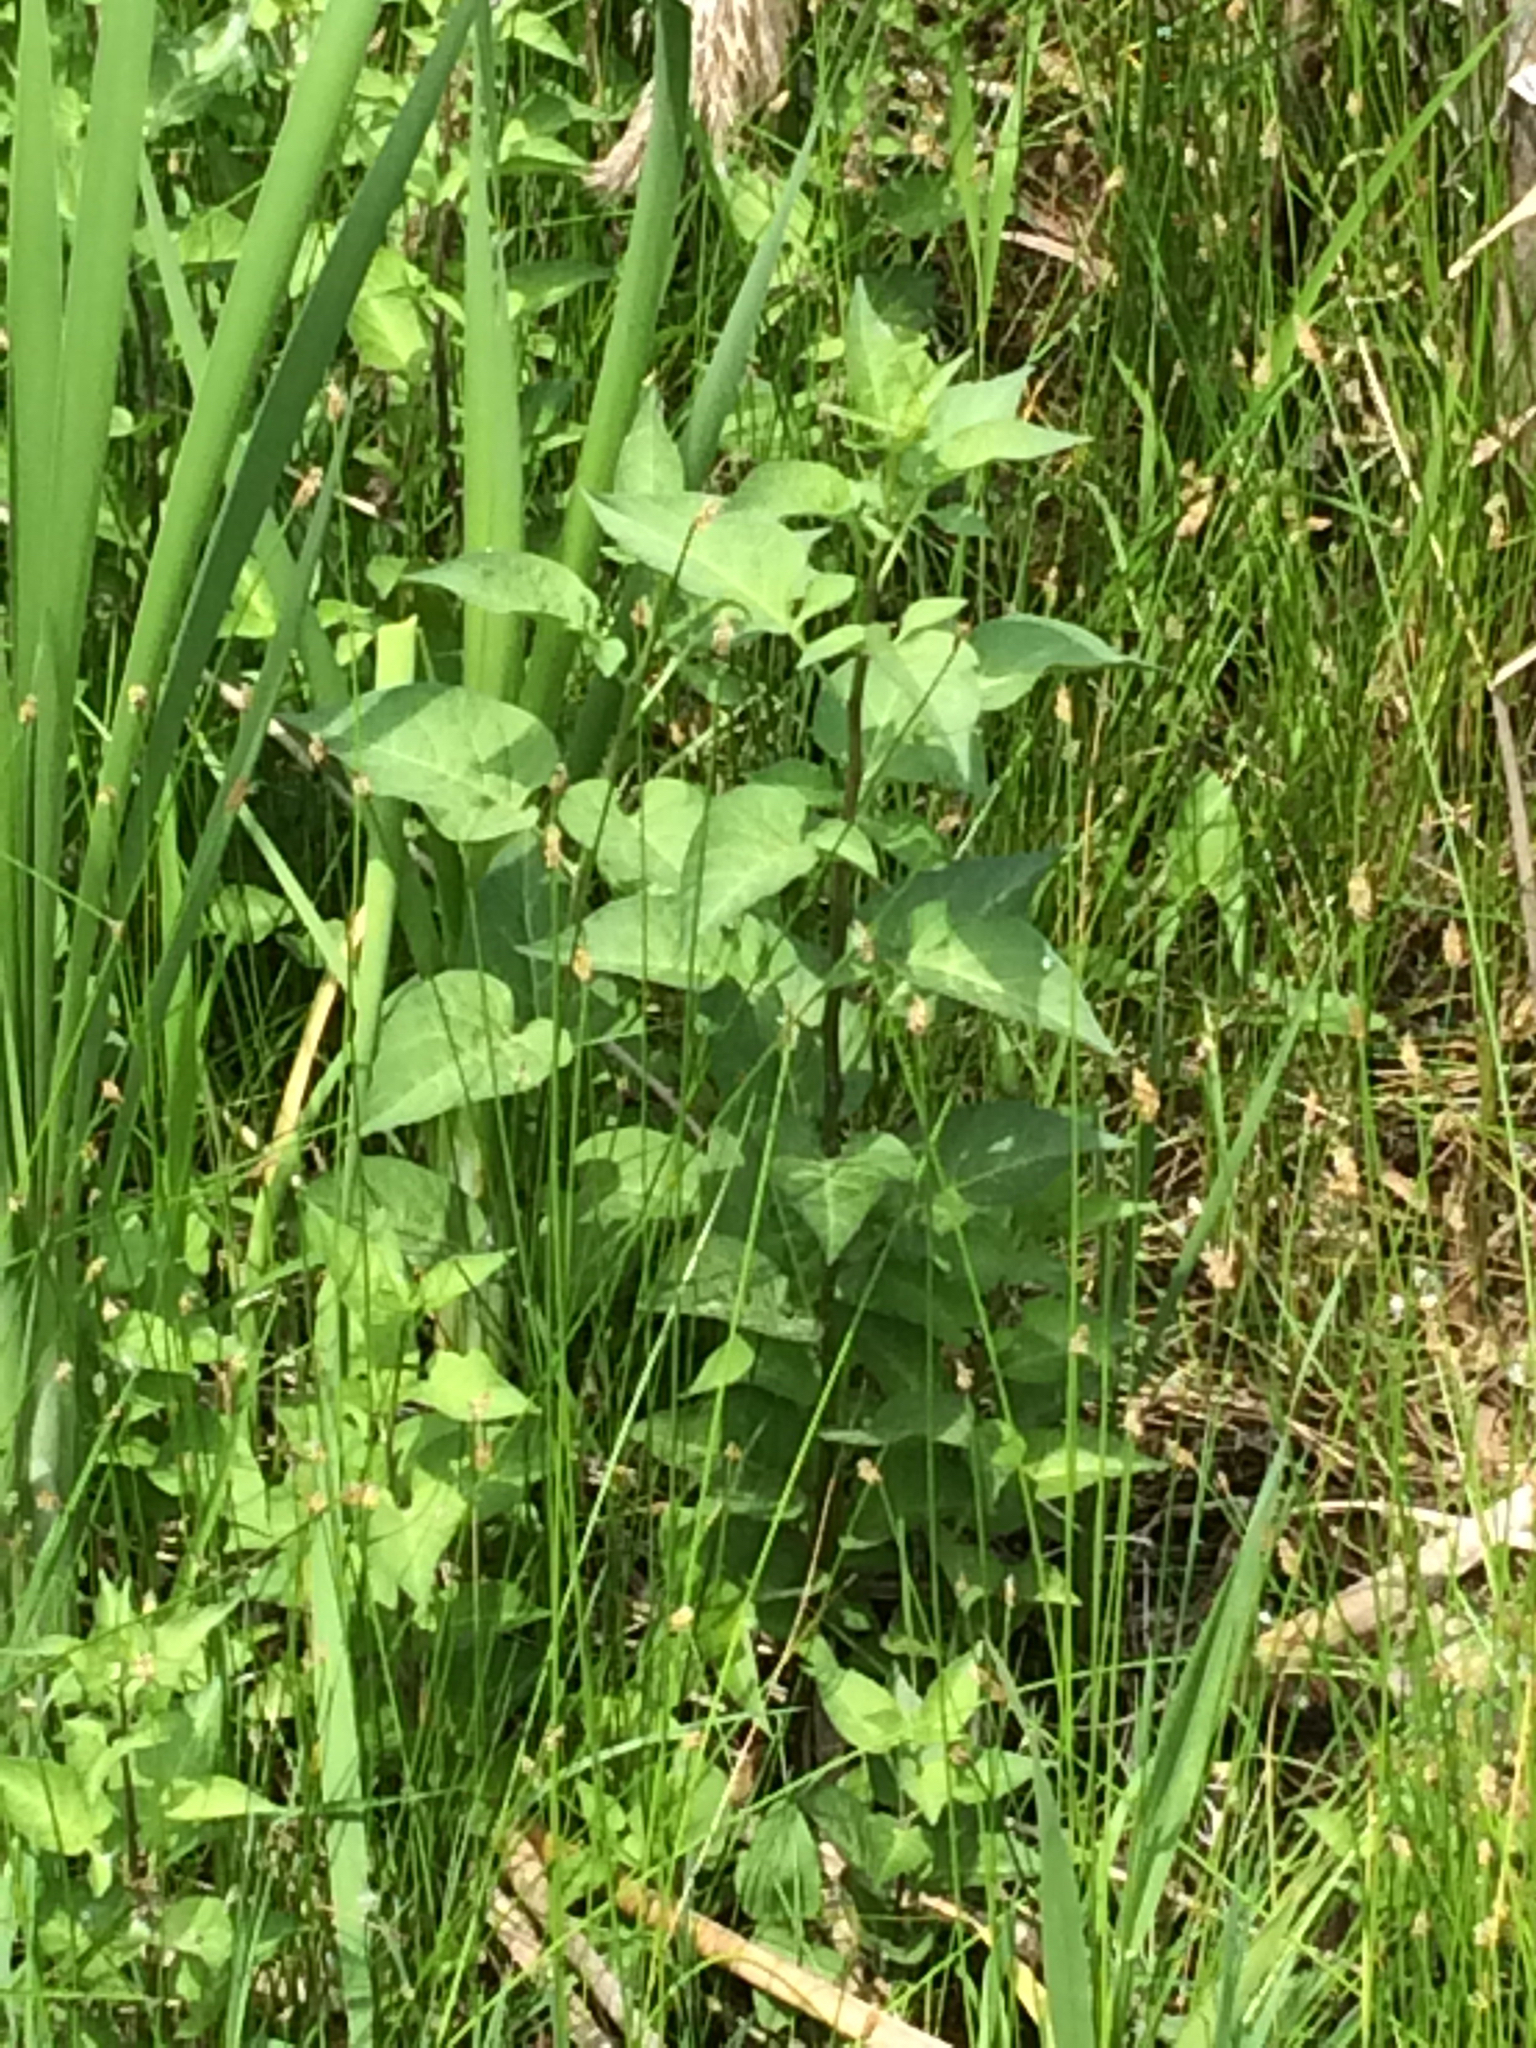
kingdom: Plantae
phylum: Tracheophyta
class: Magnoliopsida
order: Solanales
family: Solanaceae
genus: Solanum
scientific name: Solanum dulcamara
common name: Climbing nightshade
